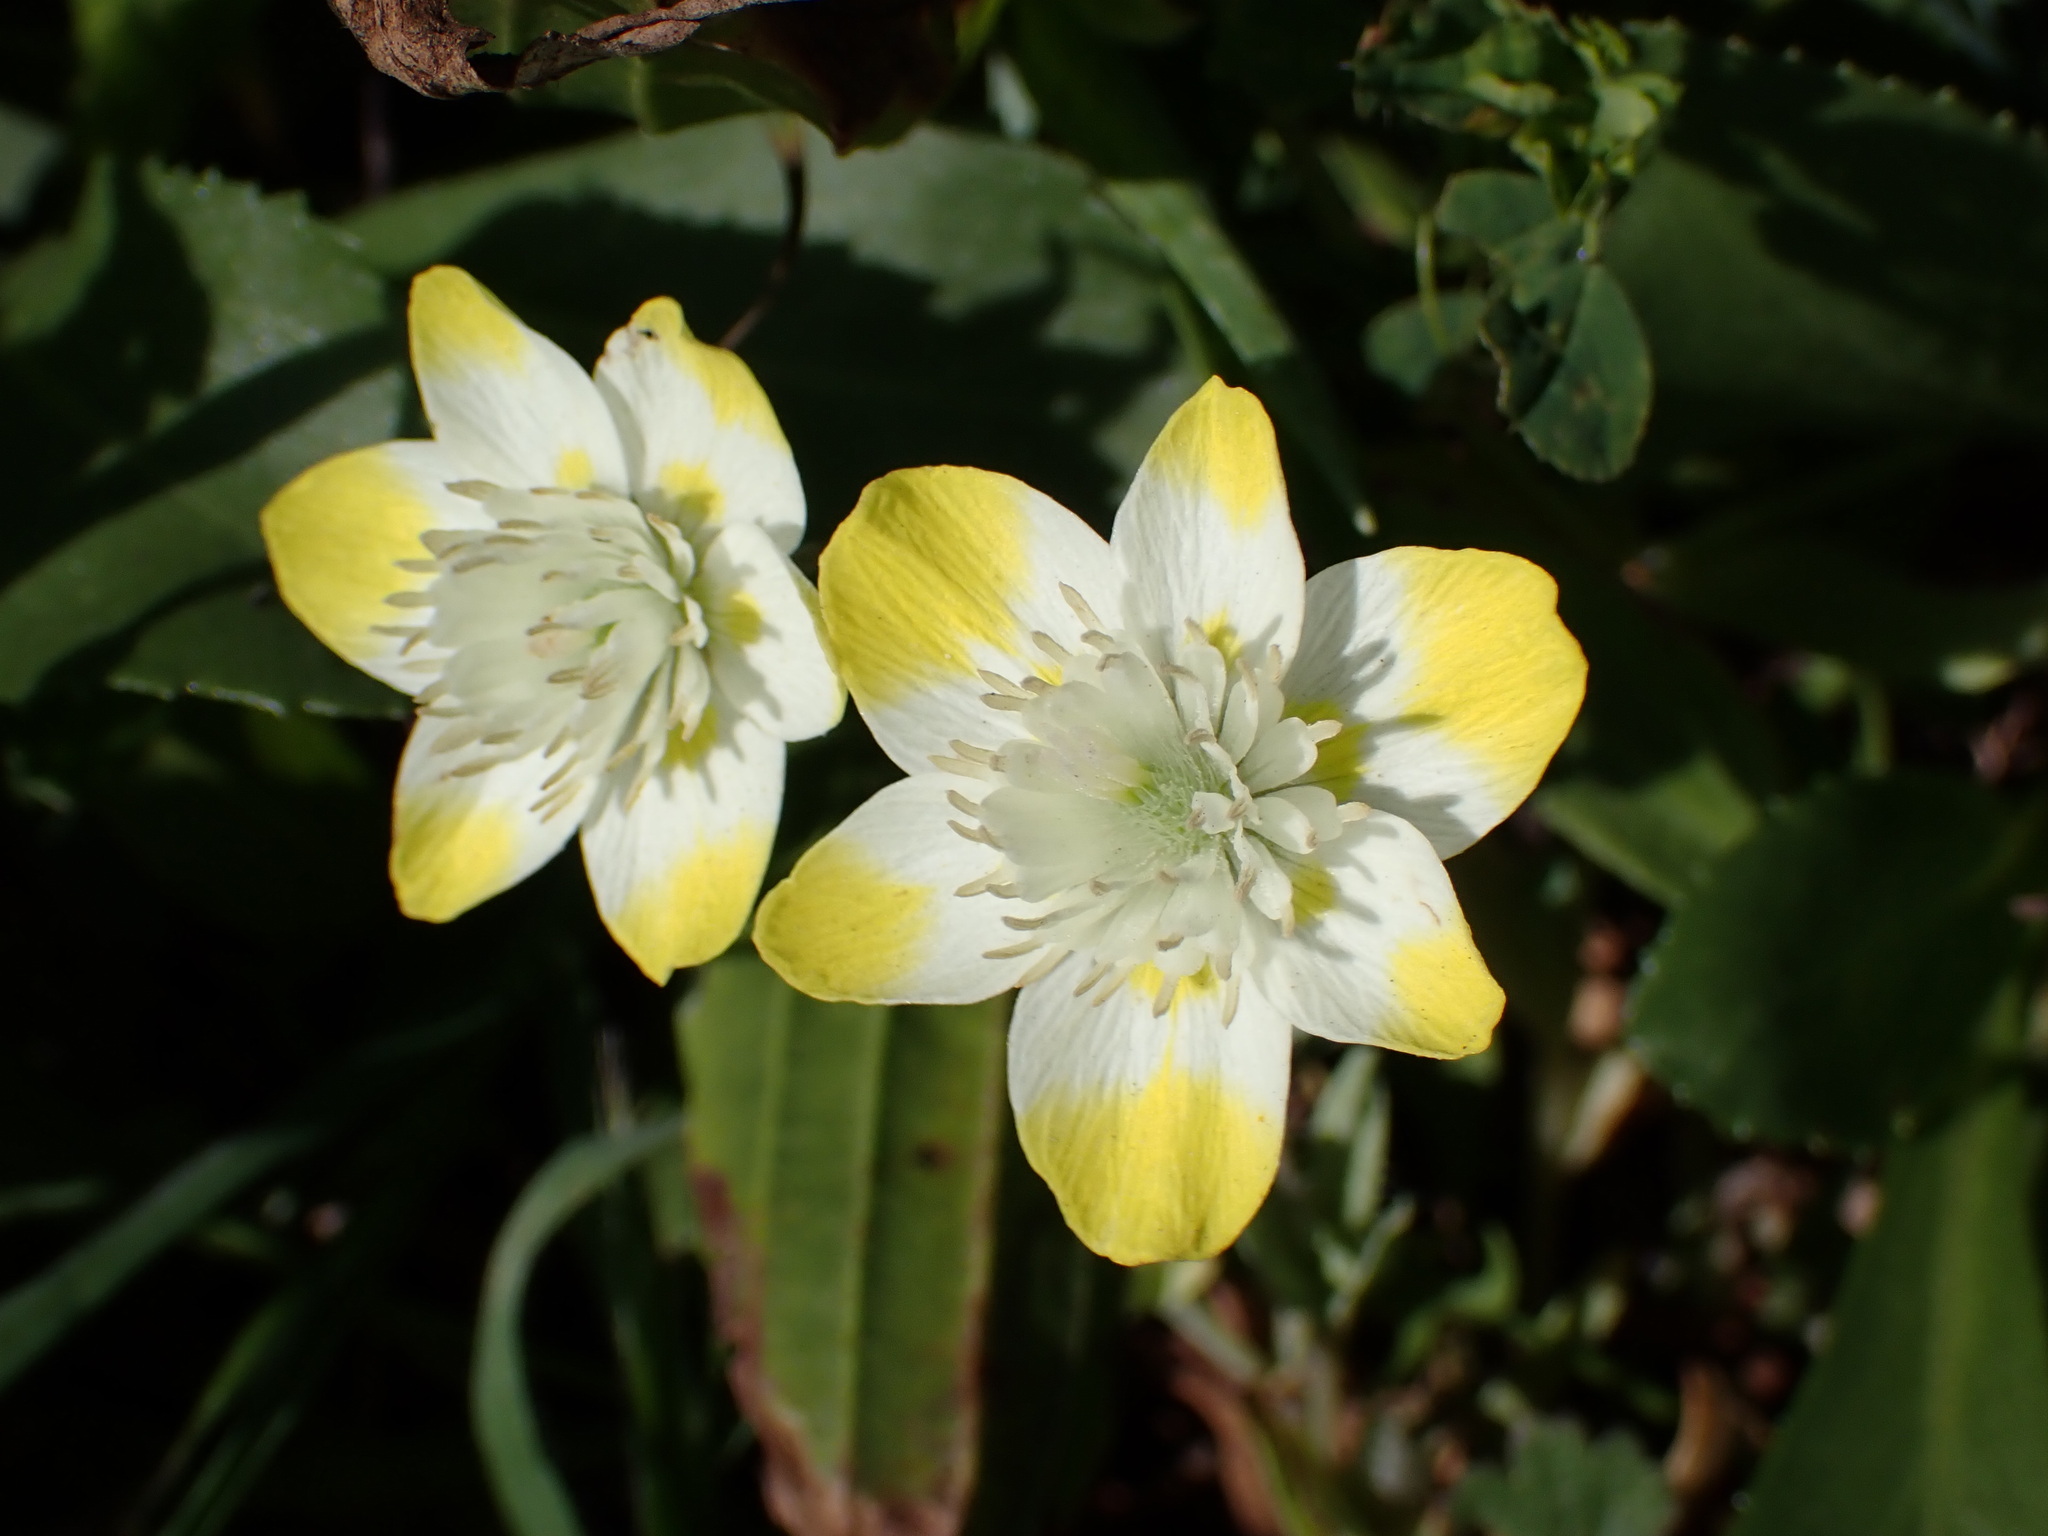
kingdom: Plantae
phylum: Tracheophyta
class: Magnoliopsida
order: Ranunculales
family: Papaveraceae
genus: Platystemon
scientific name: Platystemon californicus
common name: Cream-cups
